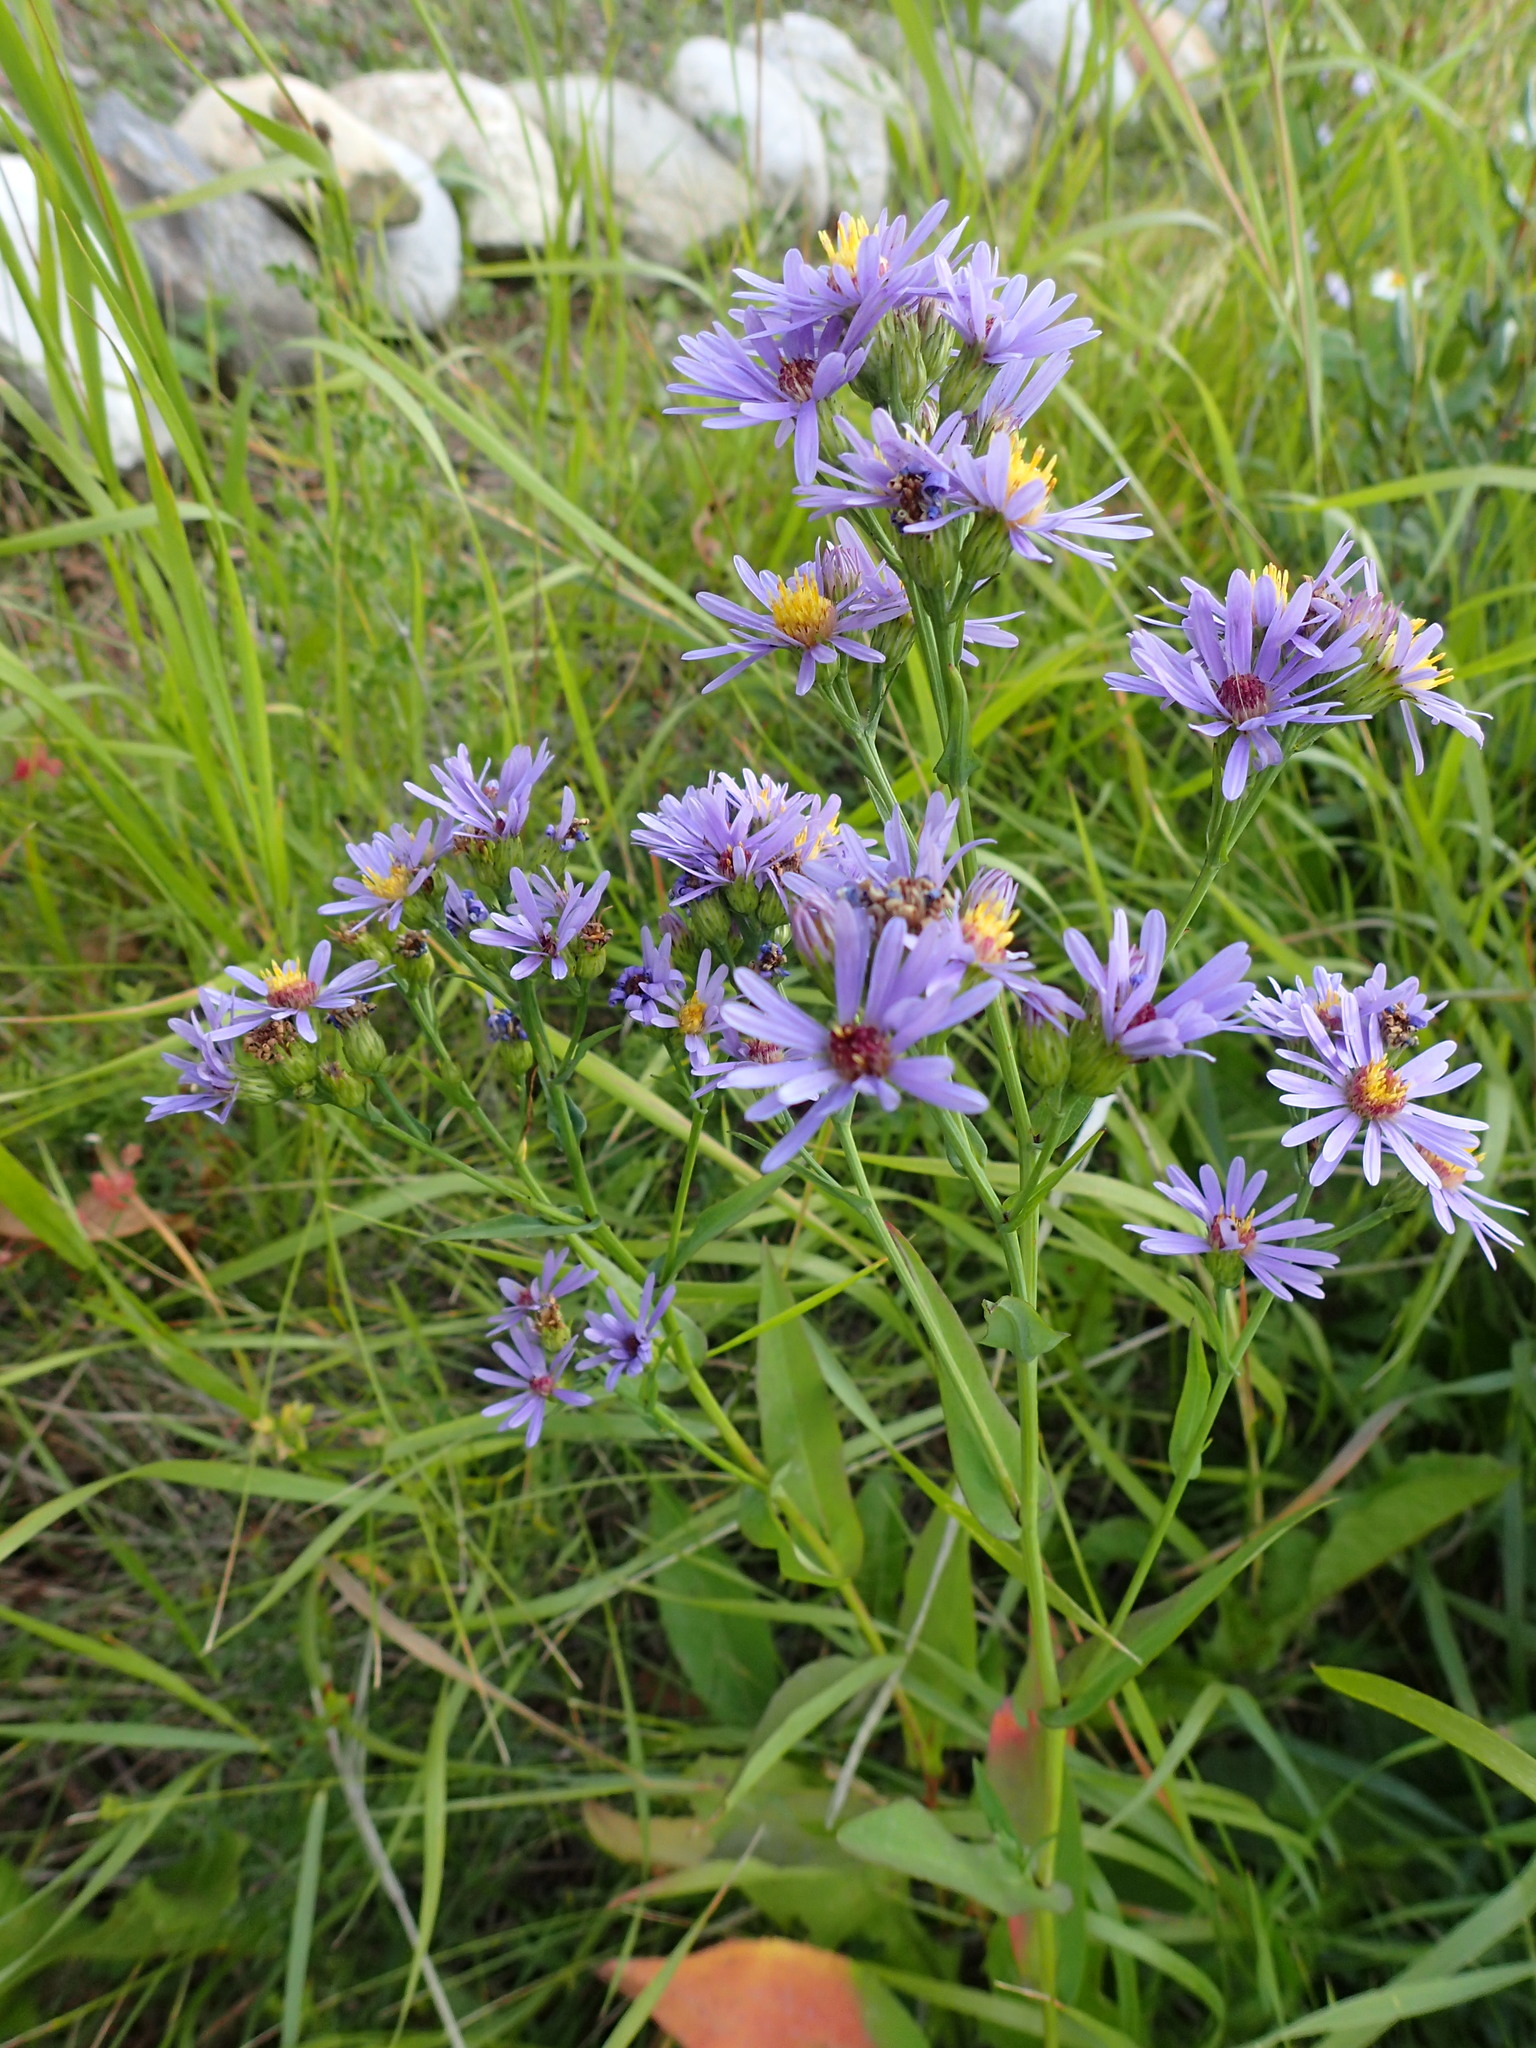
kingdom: Plantae
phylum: Tracheophyta
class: Magnoliopsida
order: Asterales
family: Asteraceae
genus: Symphyotrichum
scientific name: Symphyotrichum laeve
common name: Glaucous aster
